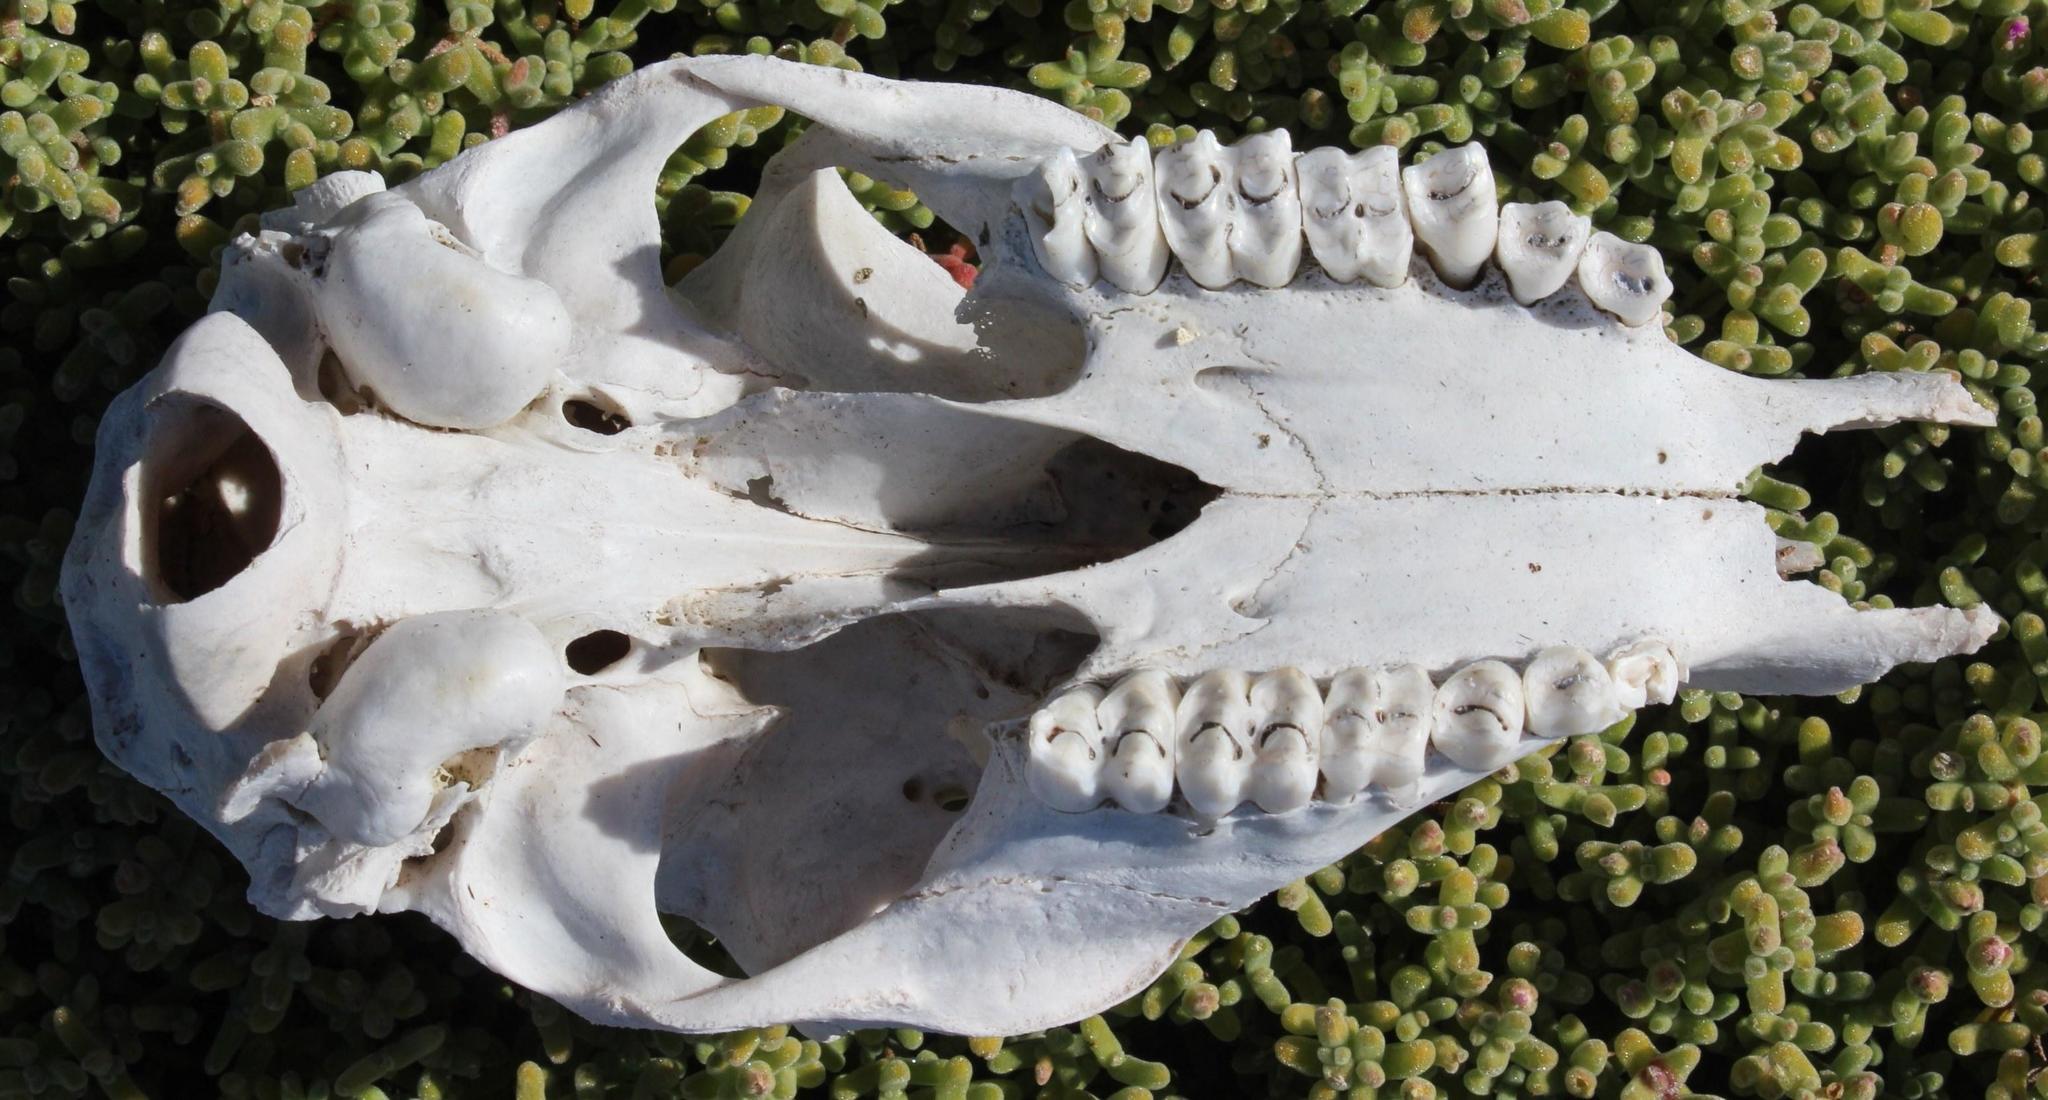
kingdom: Animalia
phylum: Chordata
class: Mammalia
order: Artiodactyla
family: Bovidae
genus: Sylvicapra
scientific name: Sylvicapra grimmia
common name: Bush duiker
